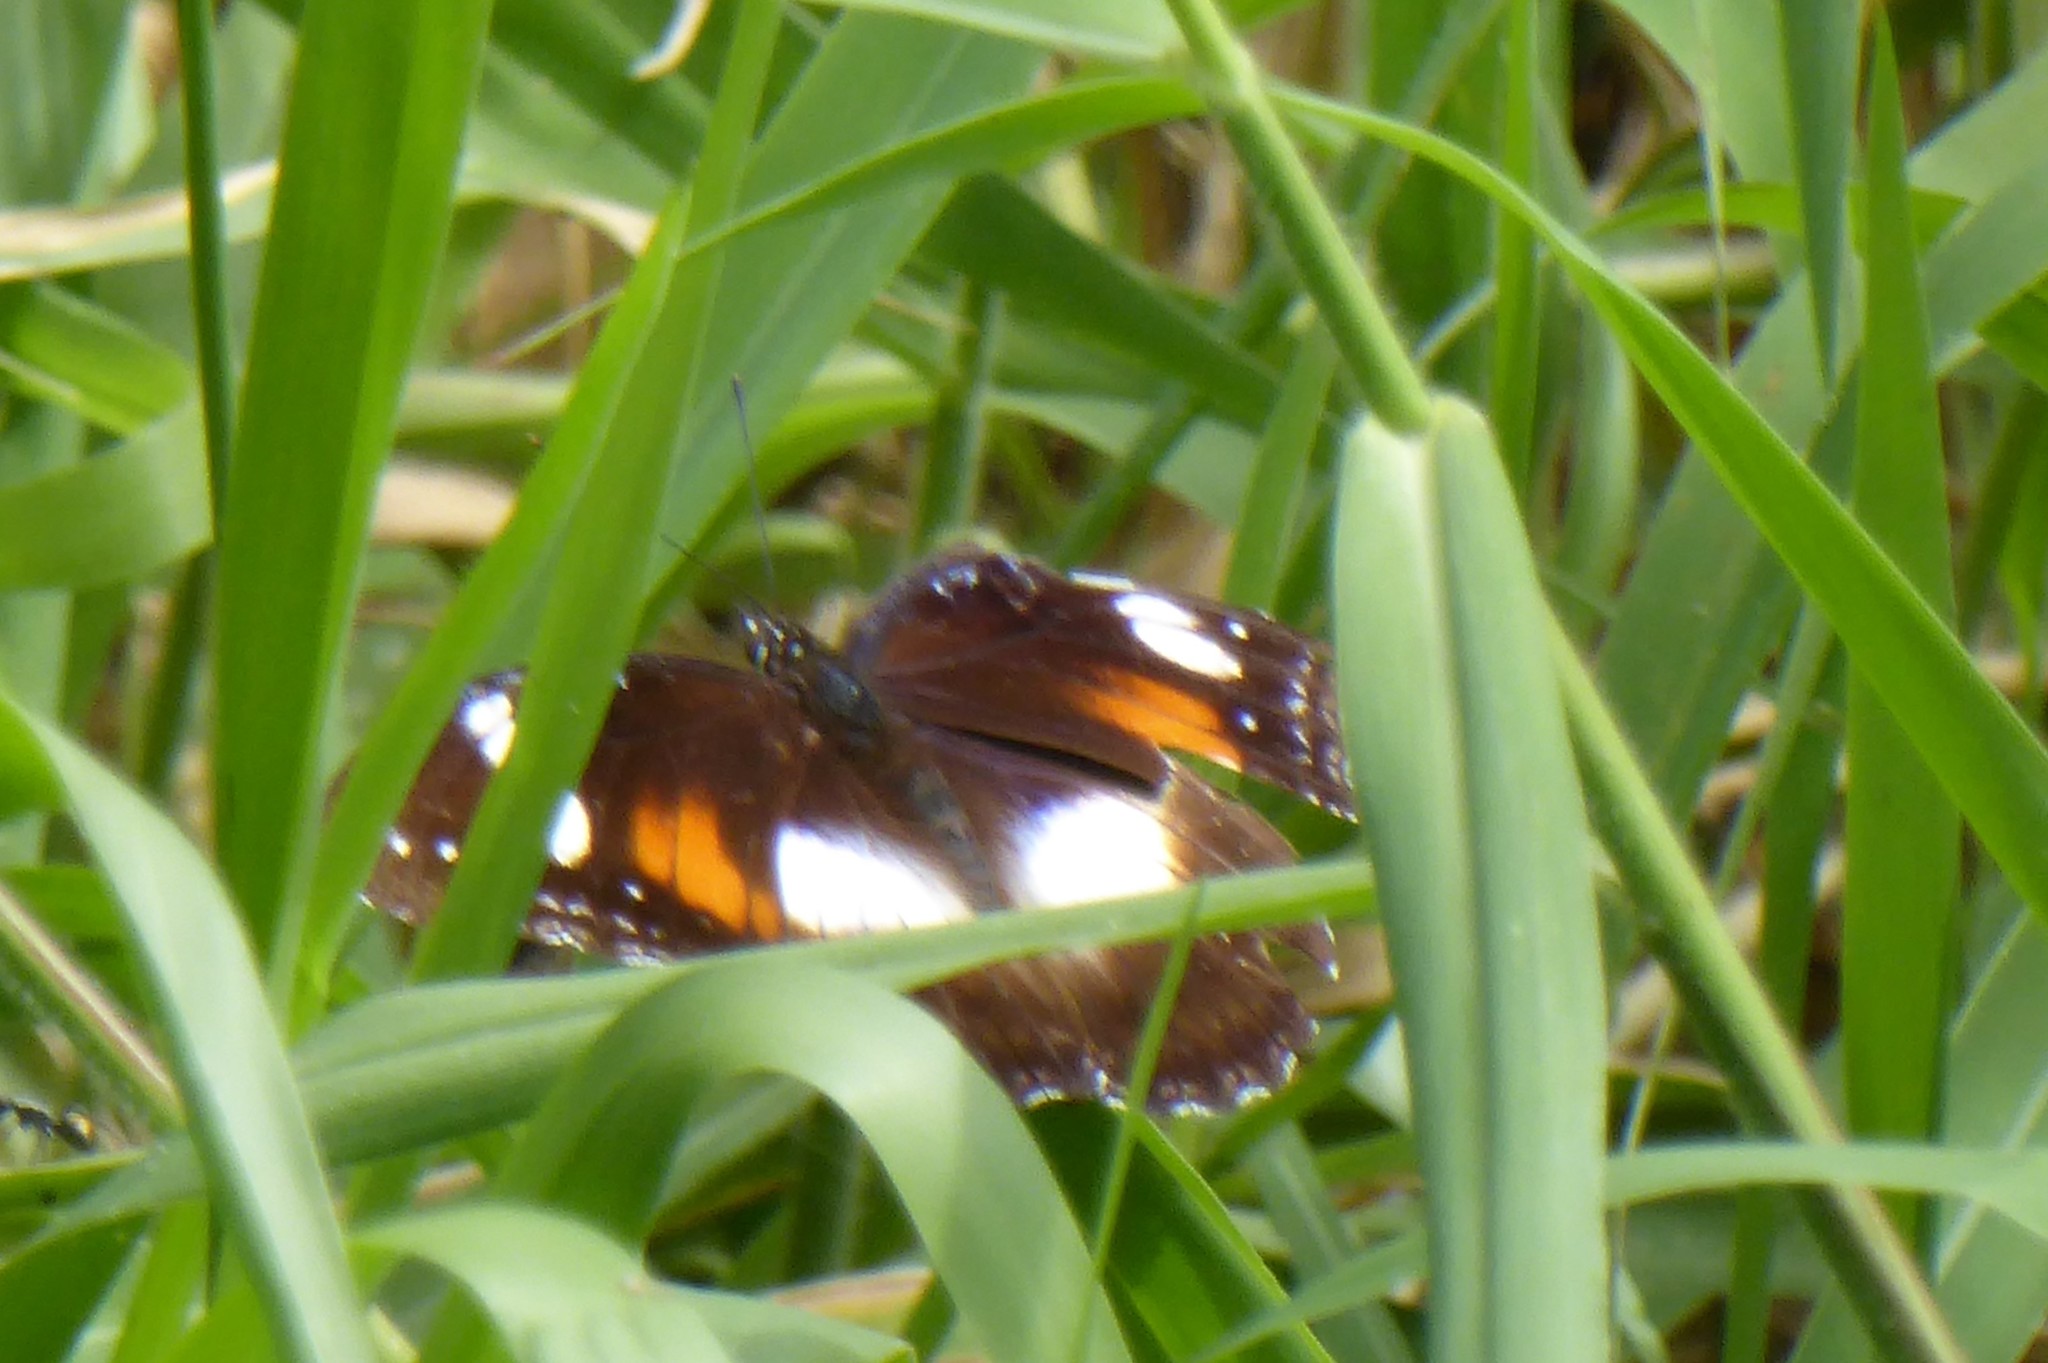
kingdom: Animalia
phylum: Arthropoda
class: Insecta
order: Lepidoptera
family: Nymphalidae
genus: Hypolimnas
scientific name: Hypolimnas bolina
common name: Great eggfly
